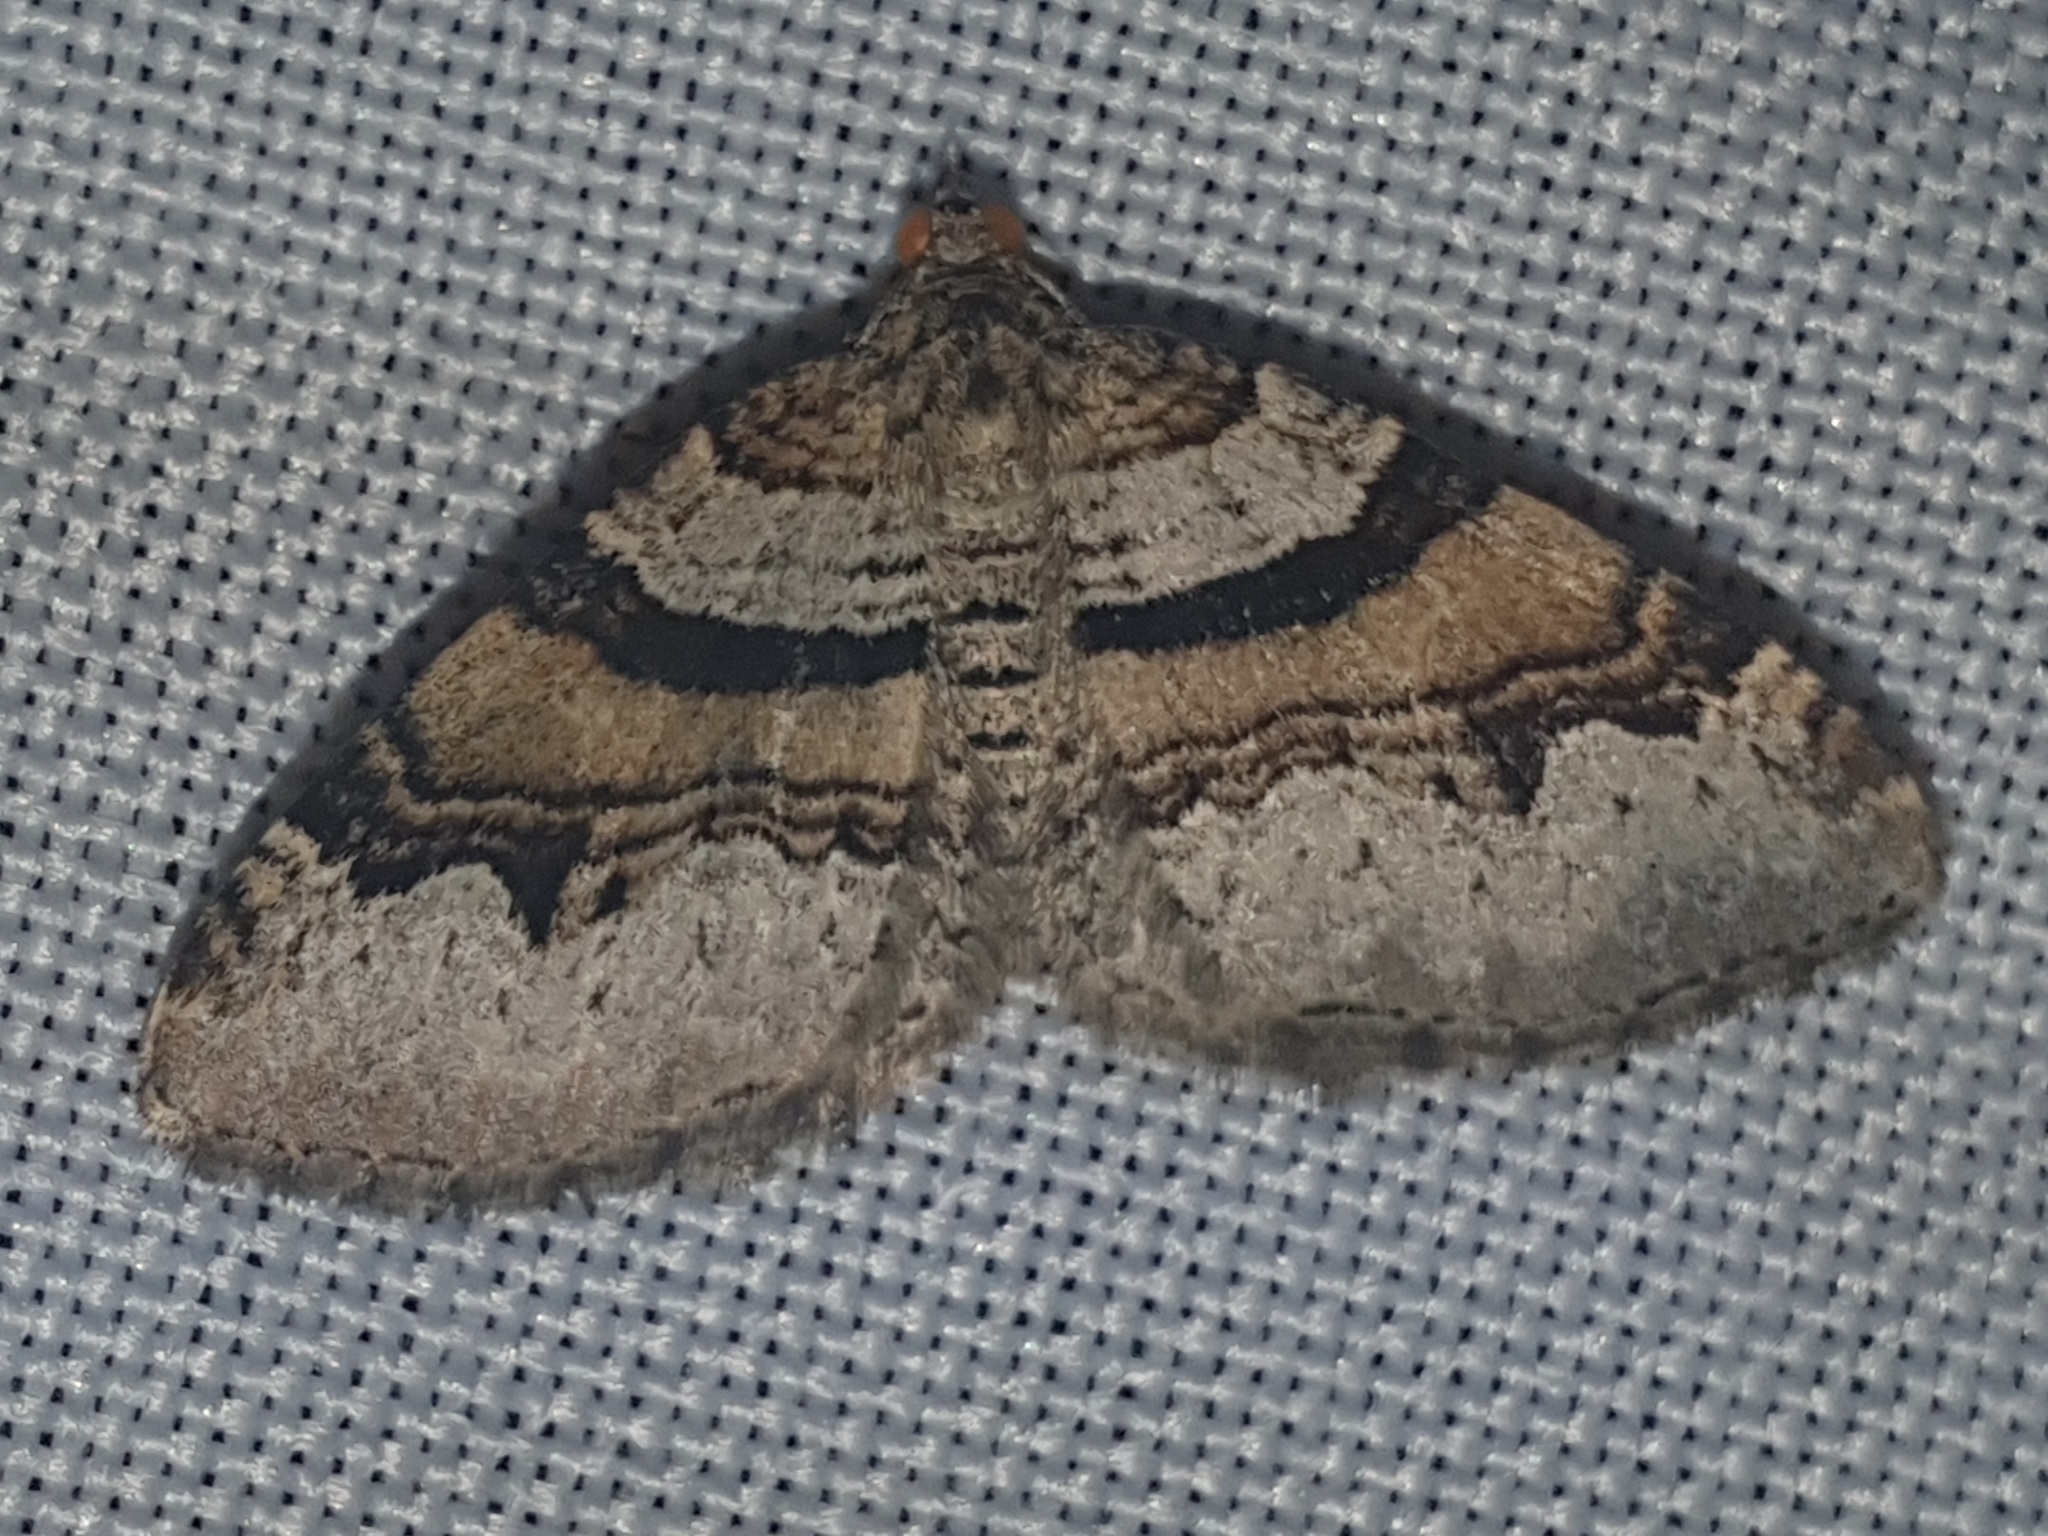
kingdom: Animalia
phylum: Arthropoda
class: Insecta
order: Lepidoptera
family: Geometridae
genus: Xanthorhoe
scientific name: Xanthorhoe designata
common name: Flame carpet
